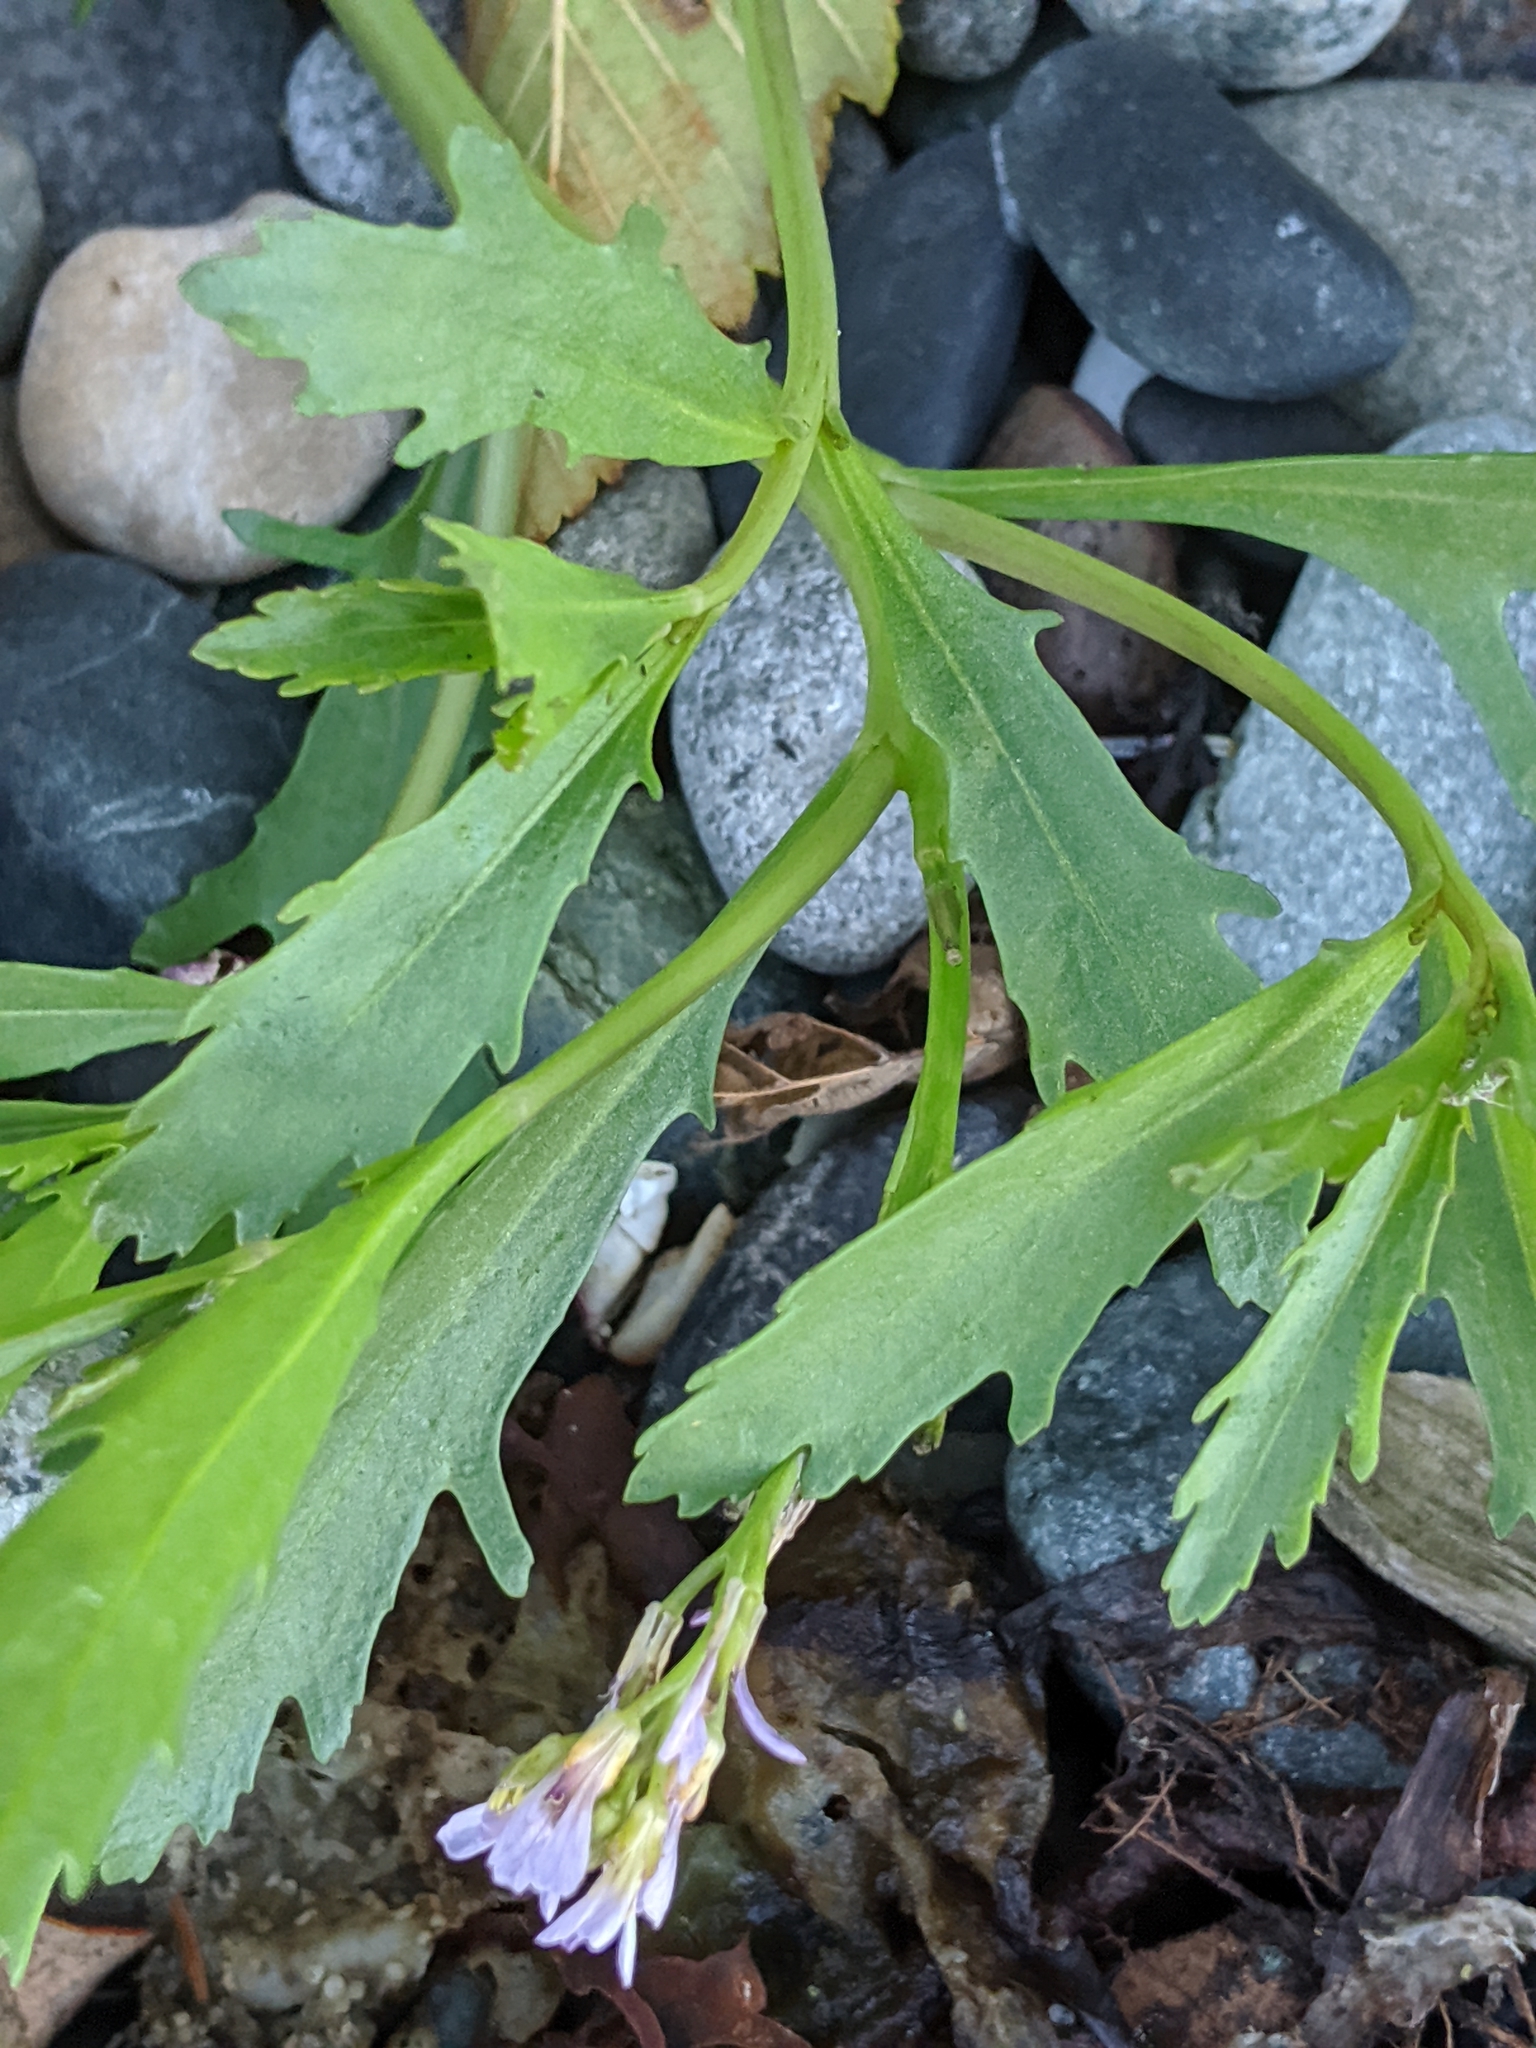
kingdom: Plantae
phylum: Tracheophyta
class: Magnoliopsida
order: Brassicales
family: Brassicaceae
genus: Cakile
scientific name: Cakile edentula
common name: American sea rocket
